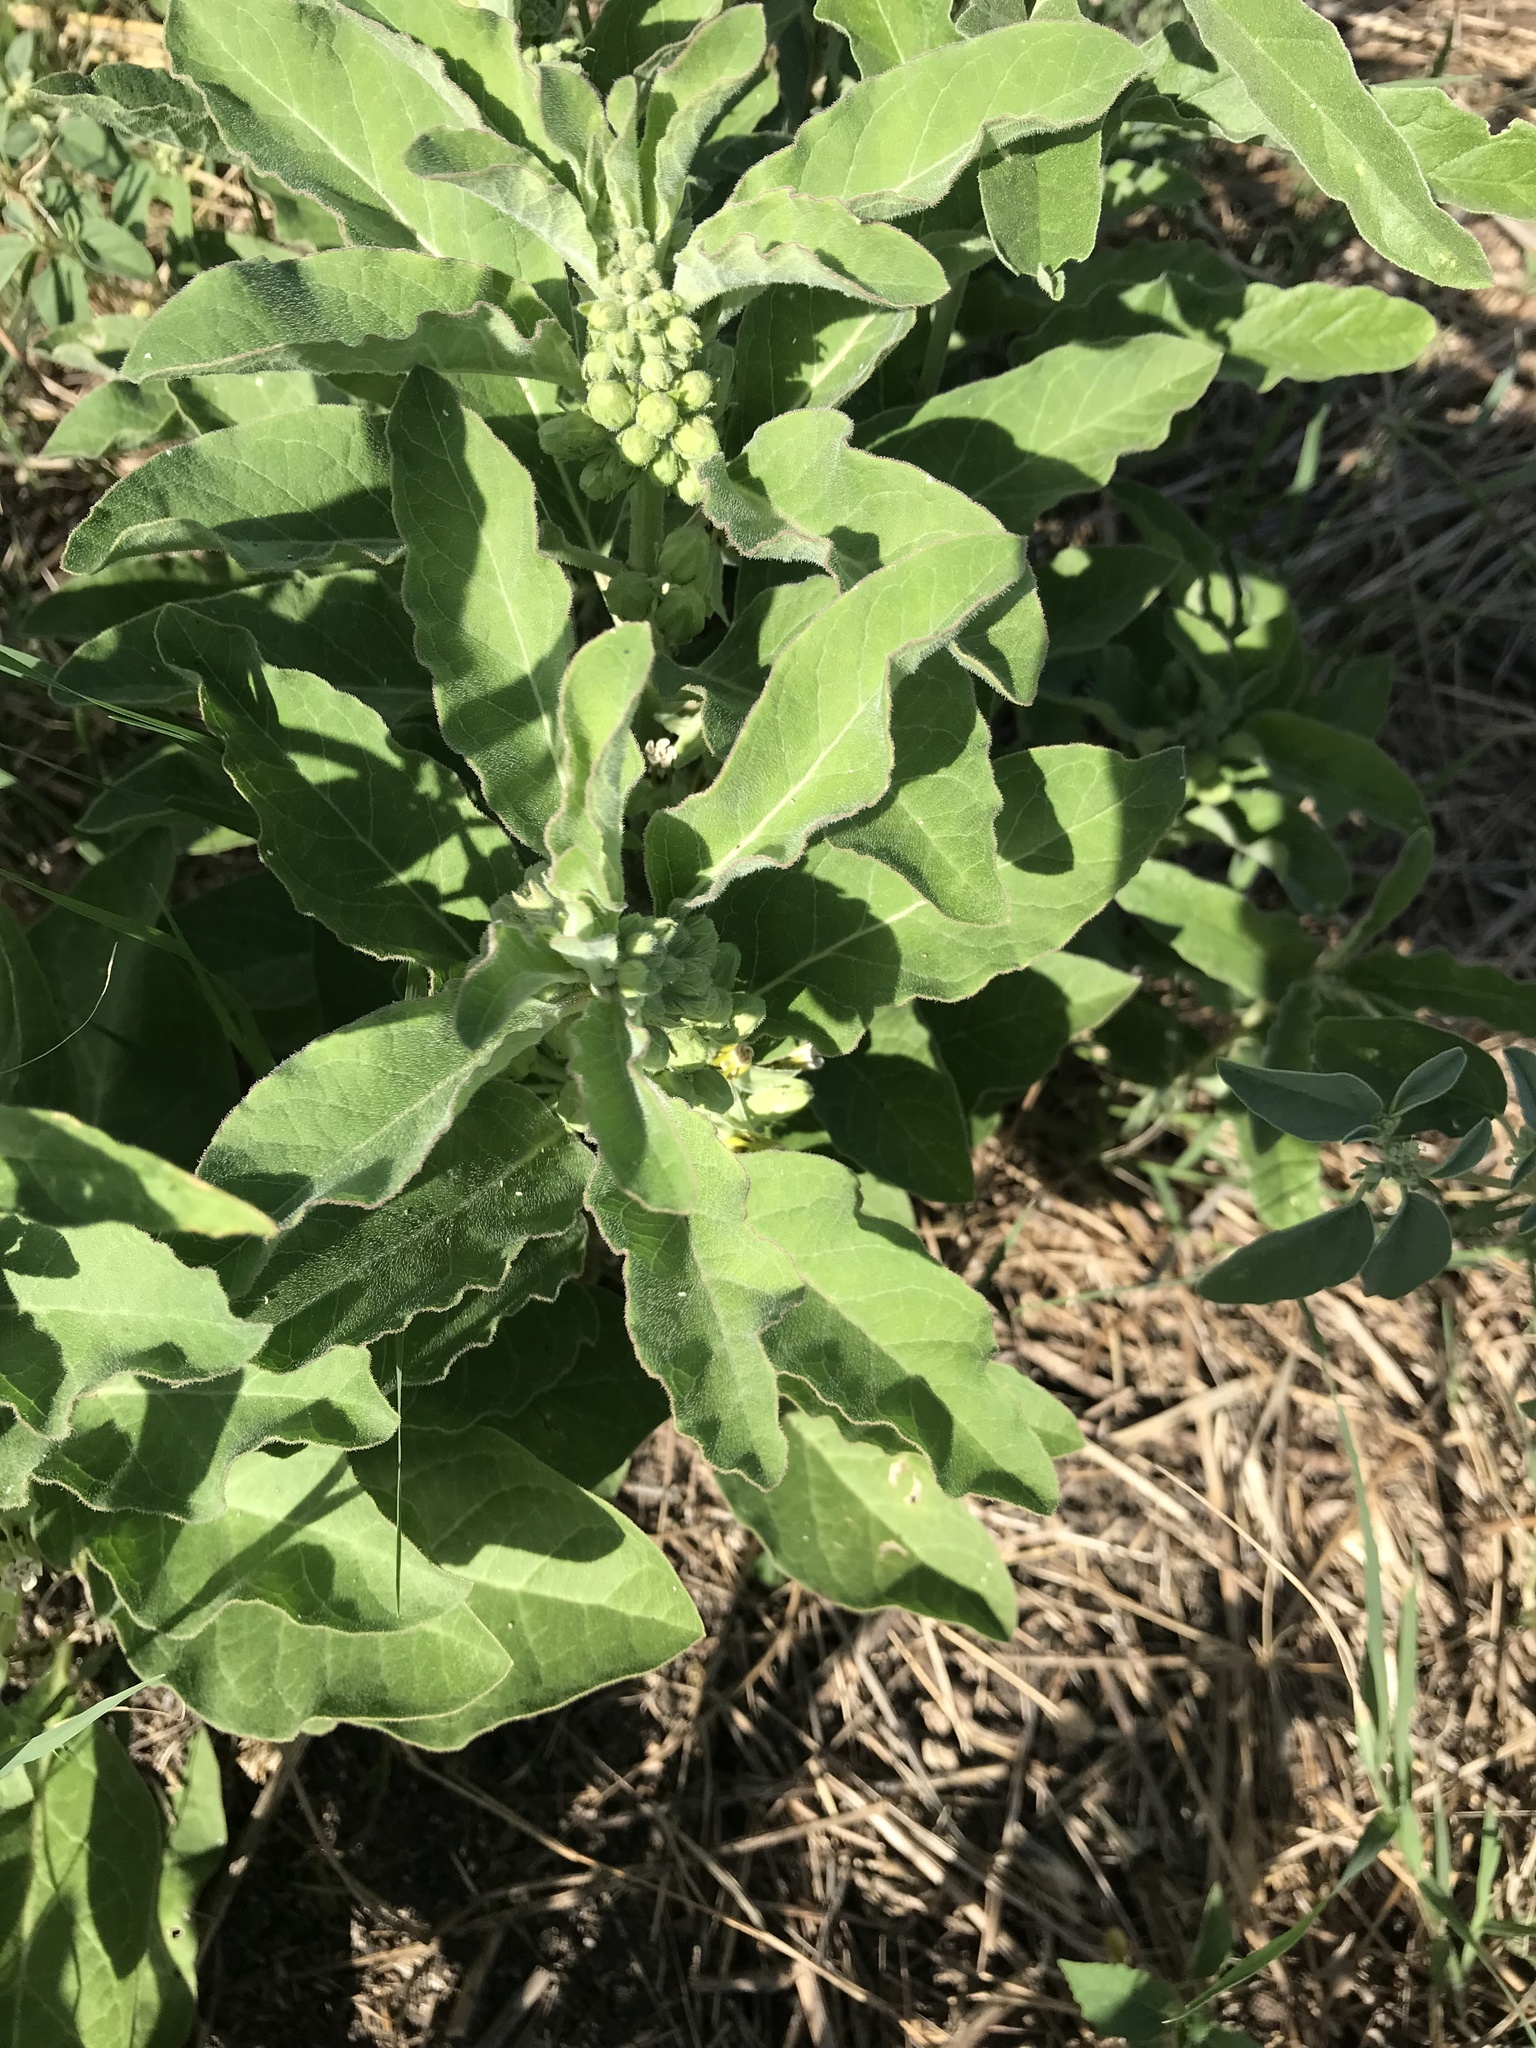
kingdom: Plantae
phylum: Tracheophyta
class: Magnoliopsida
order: Gentianales
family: Apocynaceae
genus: Asclepias
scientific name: Asclepias oenotheroides
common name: Zizotes milkweed
